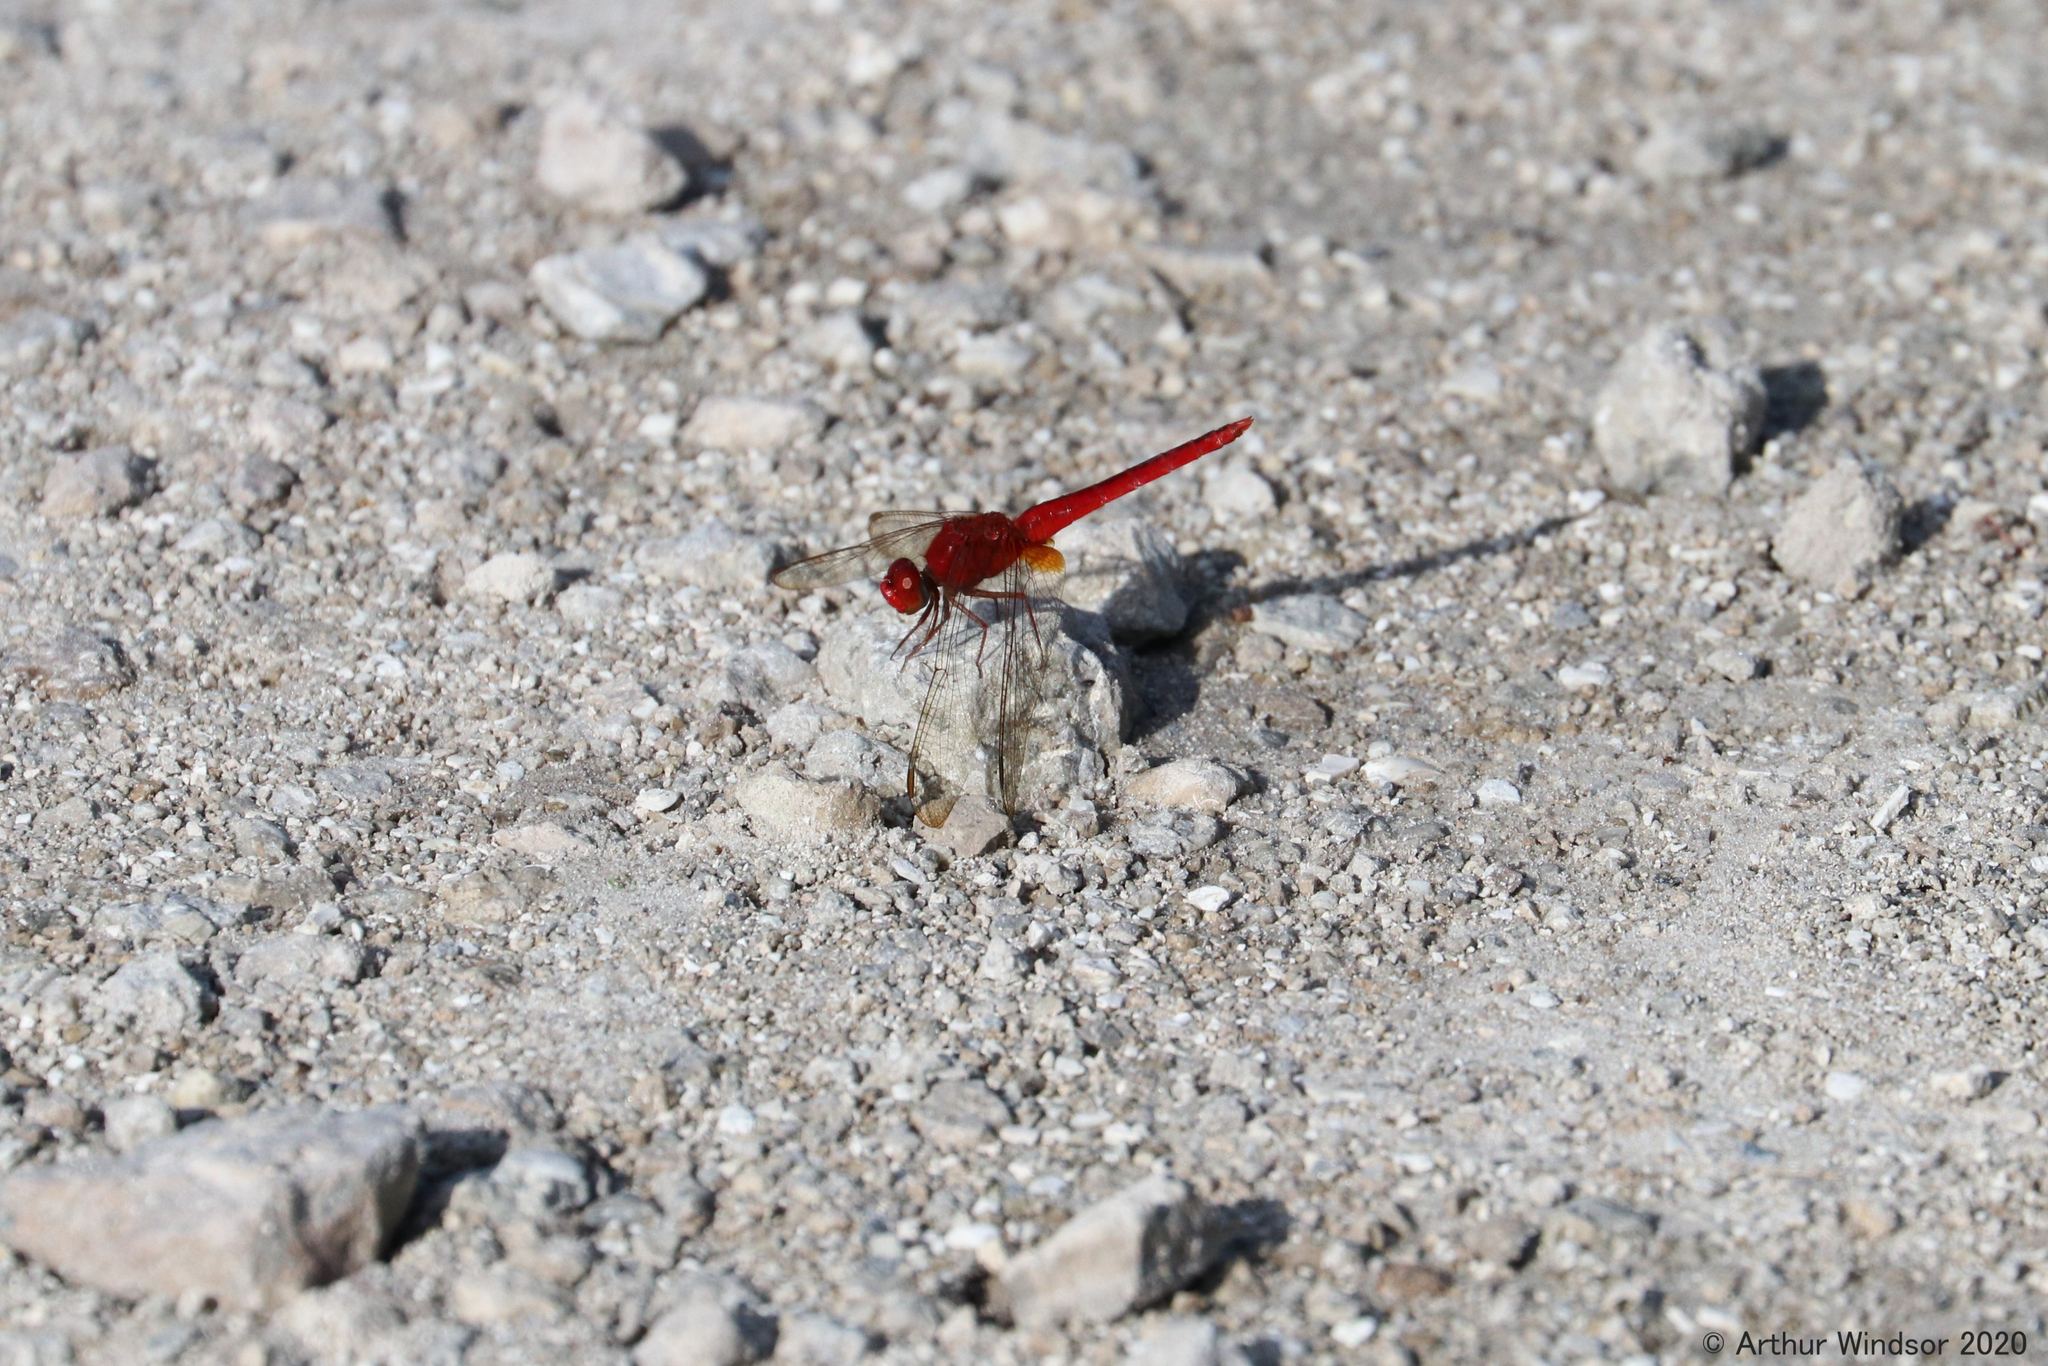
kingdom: Animalia
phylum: Arthropoda
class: Insecta
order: Odonata
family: Libellulidae
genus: Crocothemis
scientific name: Crocothemis servilia
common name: Scarlet skimmer
